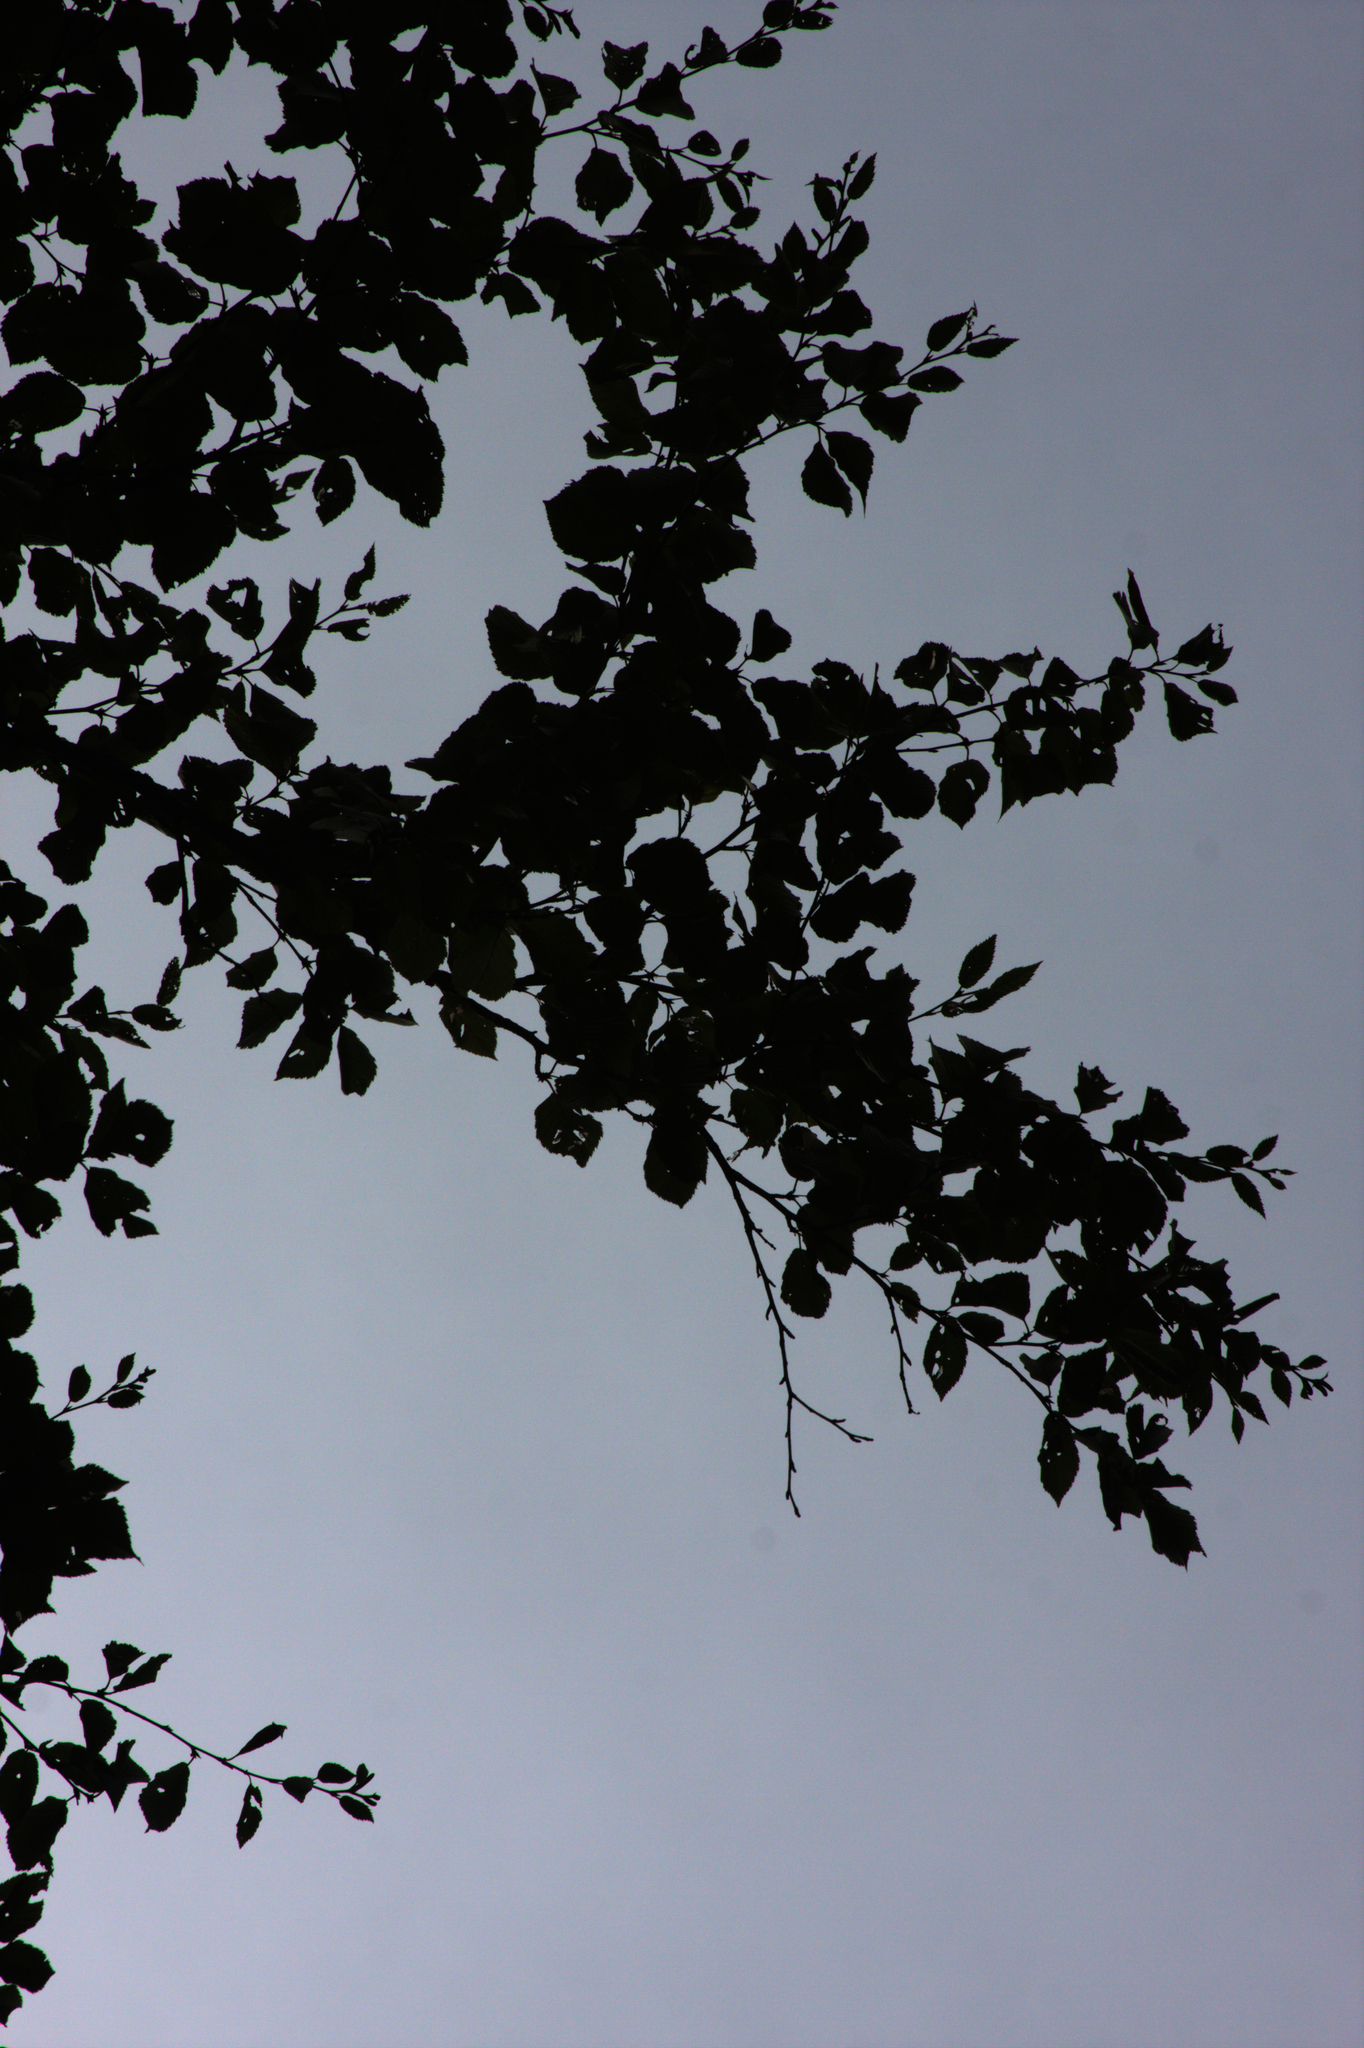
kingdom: Plantae
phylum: Tracheophyta
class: Magnoliopsida
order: Fagales
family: Betulaceae
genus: Betula
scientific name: Betula alleghaniensis
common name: Yellow birch
